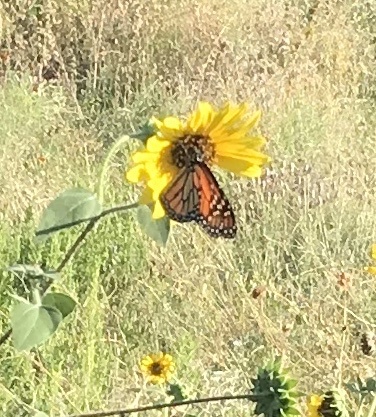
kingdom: Animalia
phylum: Arthropoda
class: Insecta
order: Lepidoptera
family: Nymphalidae
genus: Danaus
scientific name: Danaus plexippus
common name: Monarch
